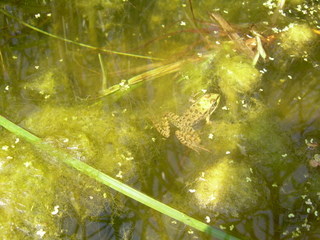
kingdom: Animalia
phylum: Chordata
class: Amphibia
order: Anura
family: Ranidae
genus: Pelophylax
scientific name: Pelophylax
